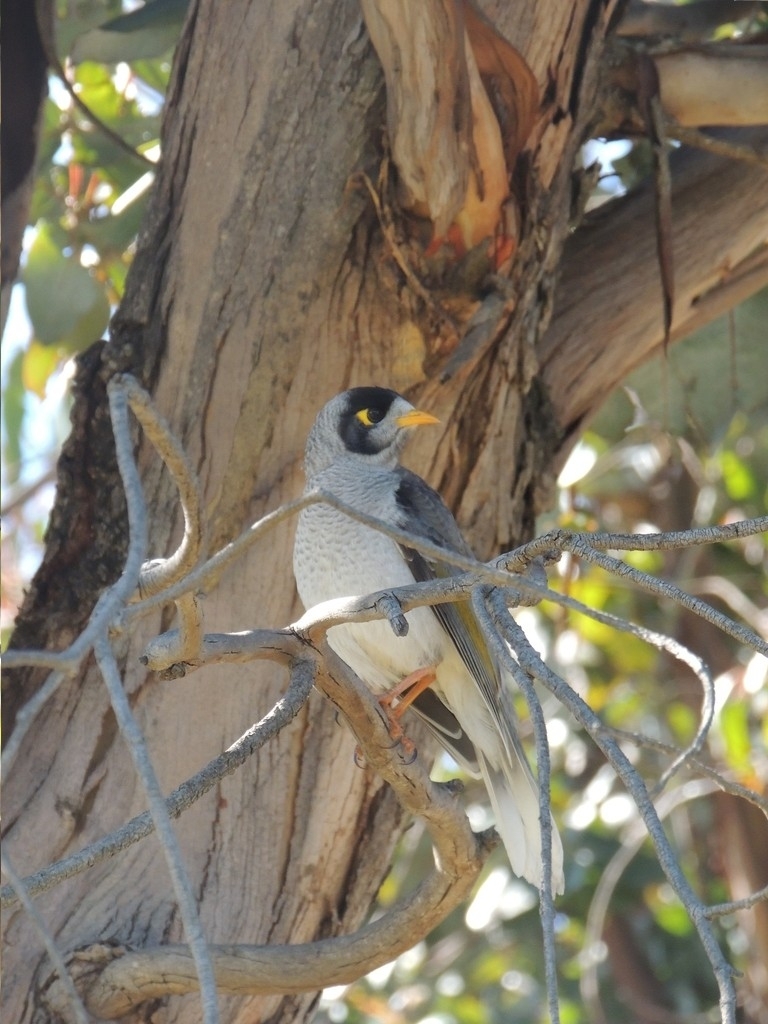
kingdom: Animalia
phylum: Chordata
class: Aves
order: Passeriformes
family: Meliphagidae
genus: Manorina
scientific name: Manorina melanocephala
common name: Noisy miner
